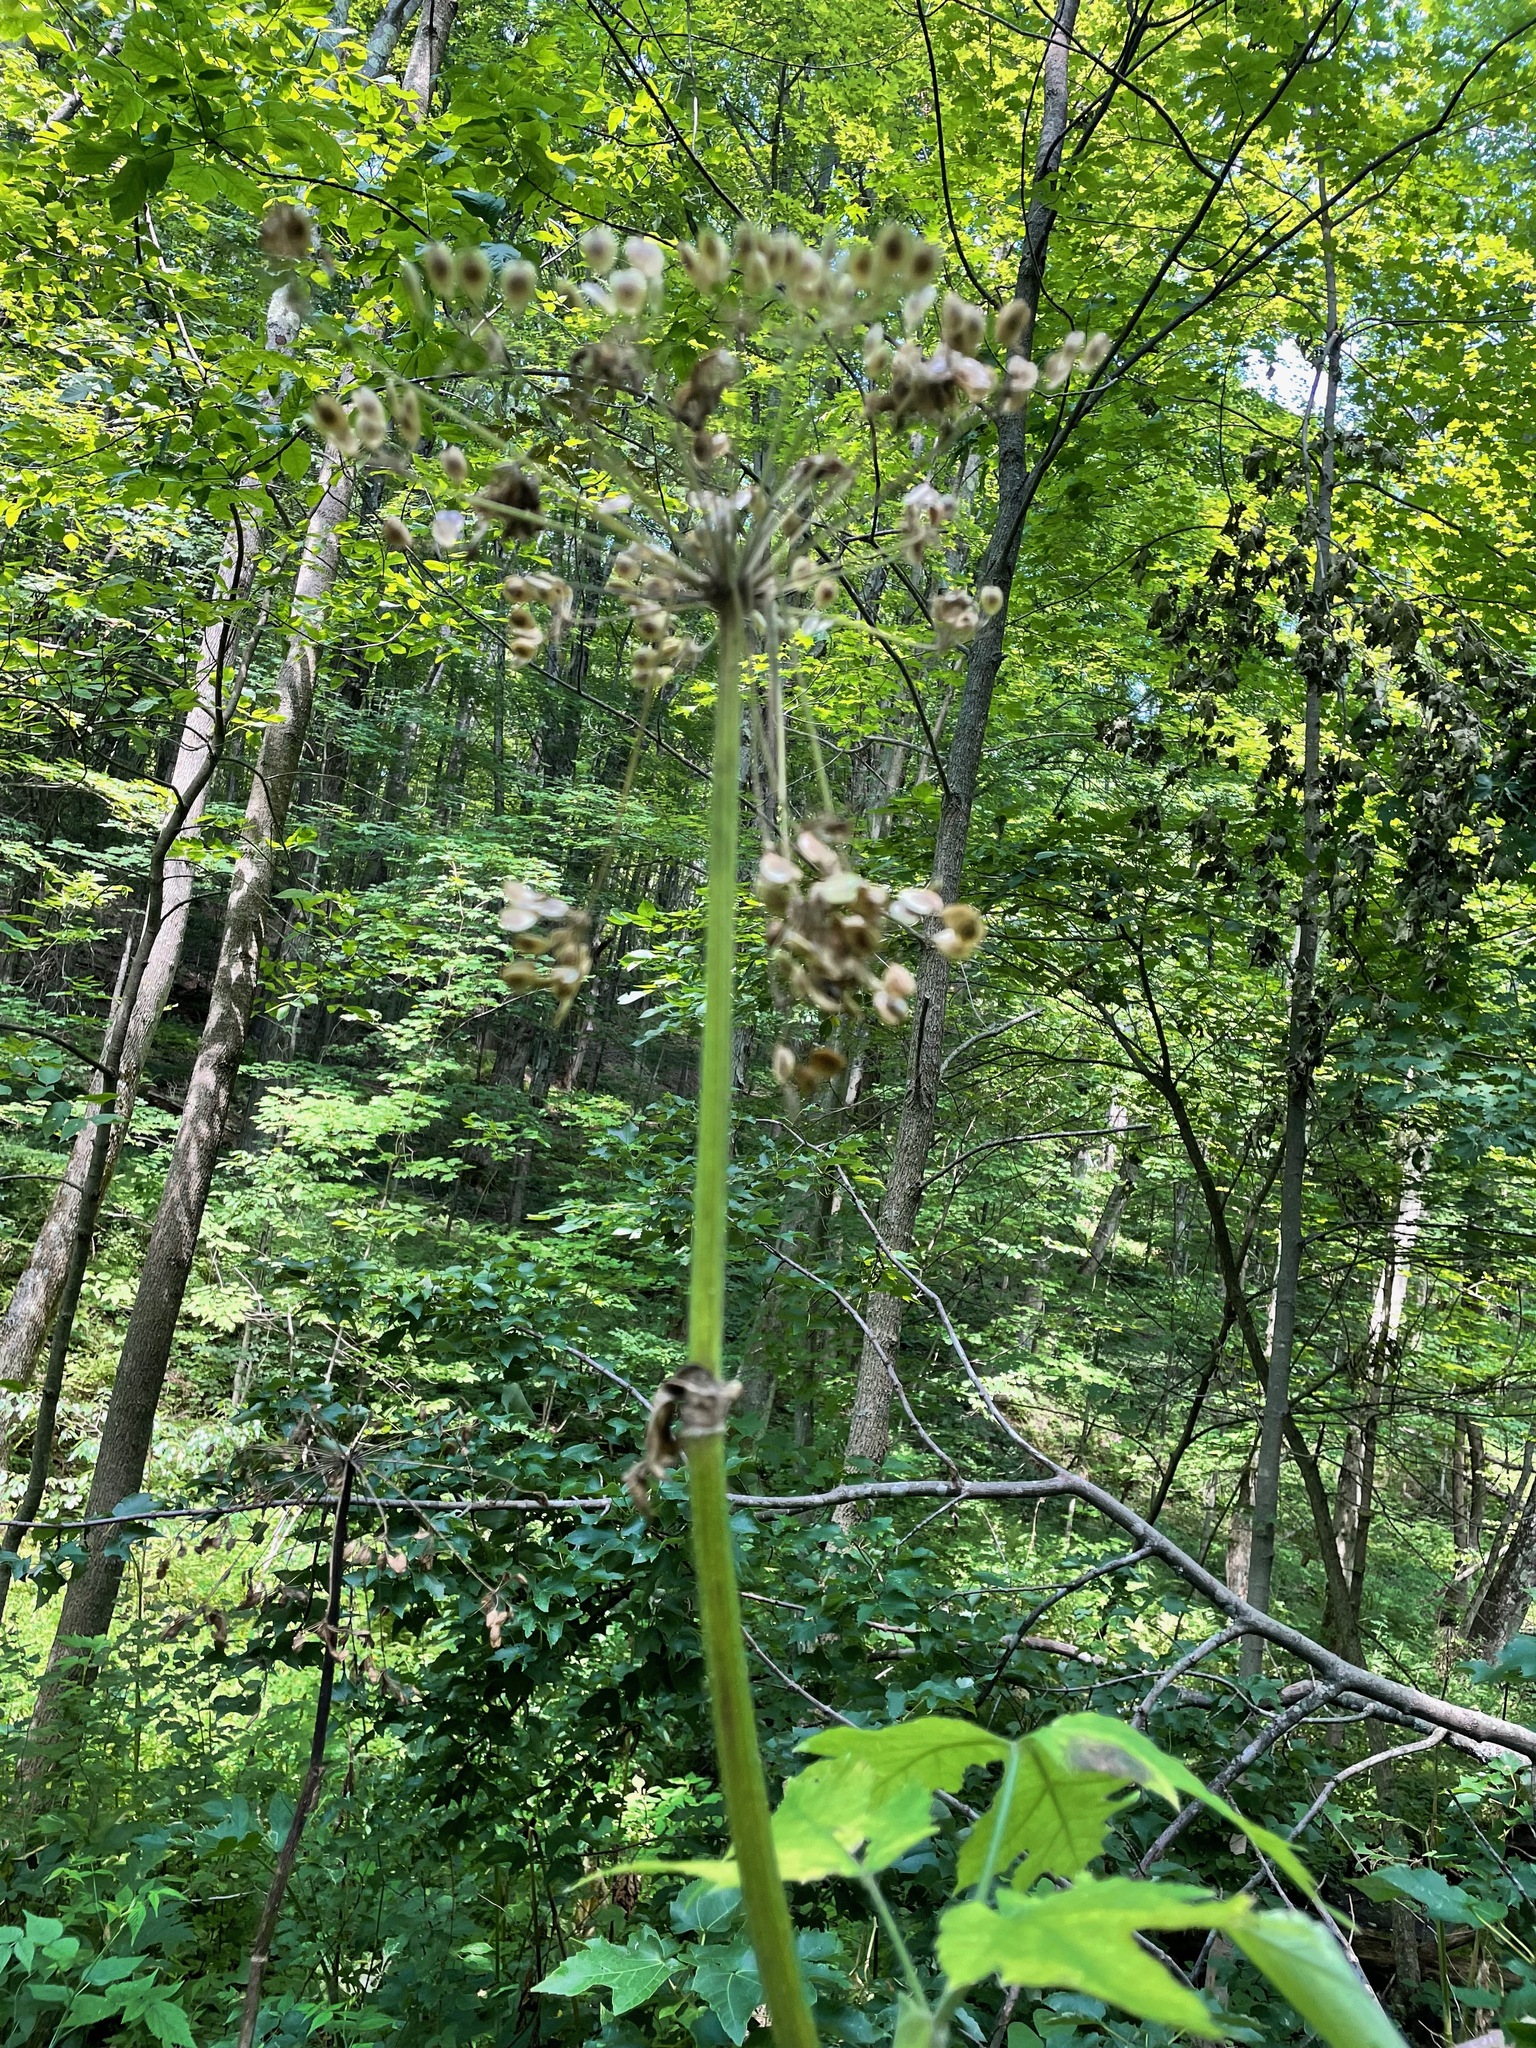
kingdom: Plantae
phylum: Tracheophyta
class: Magnoliopsida
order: Apiales
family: Apiaceae
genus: Heracleum
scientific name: Heracleum maximum
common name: American cow parsnip
